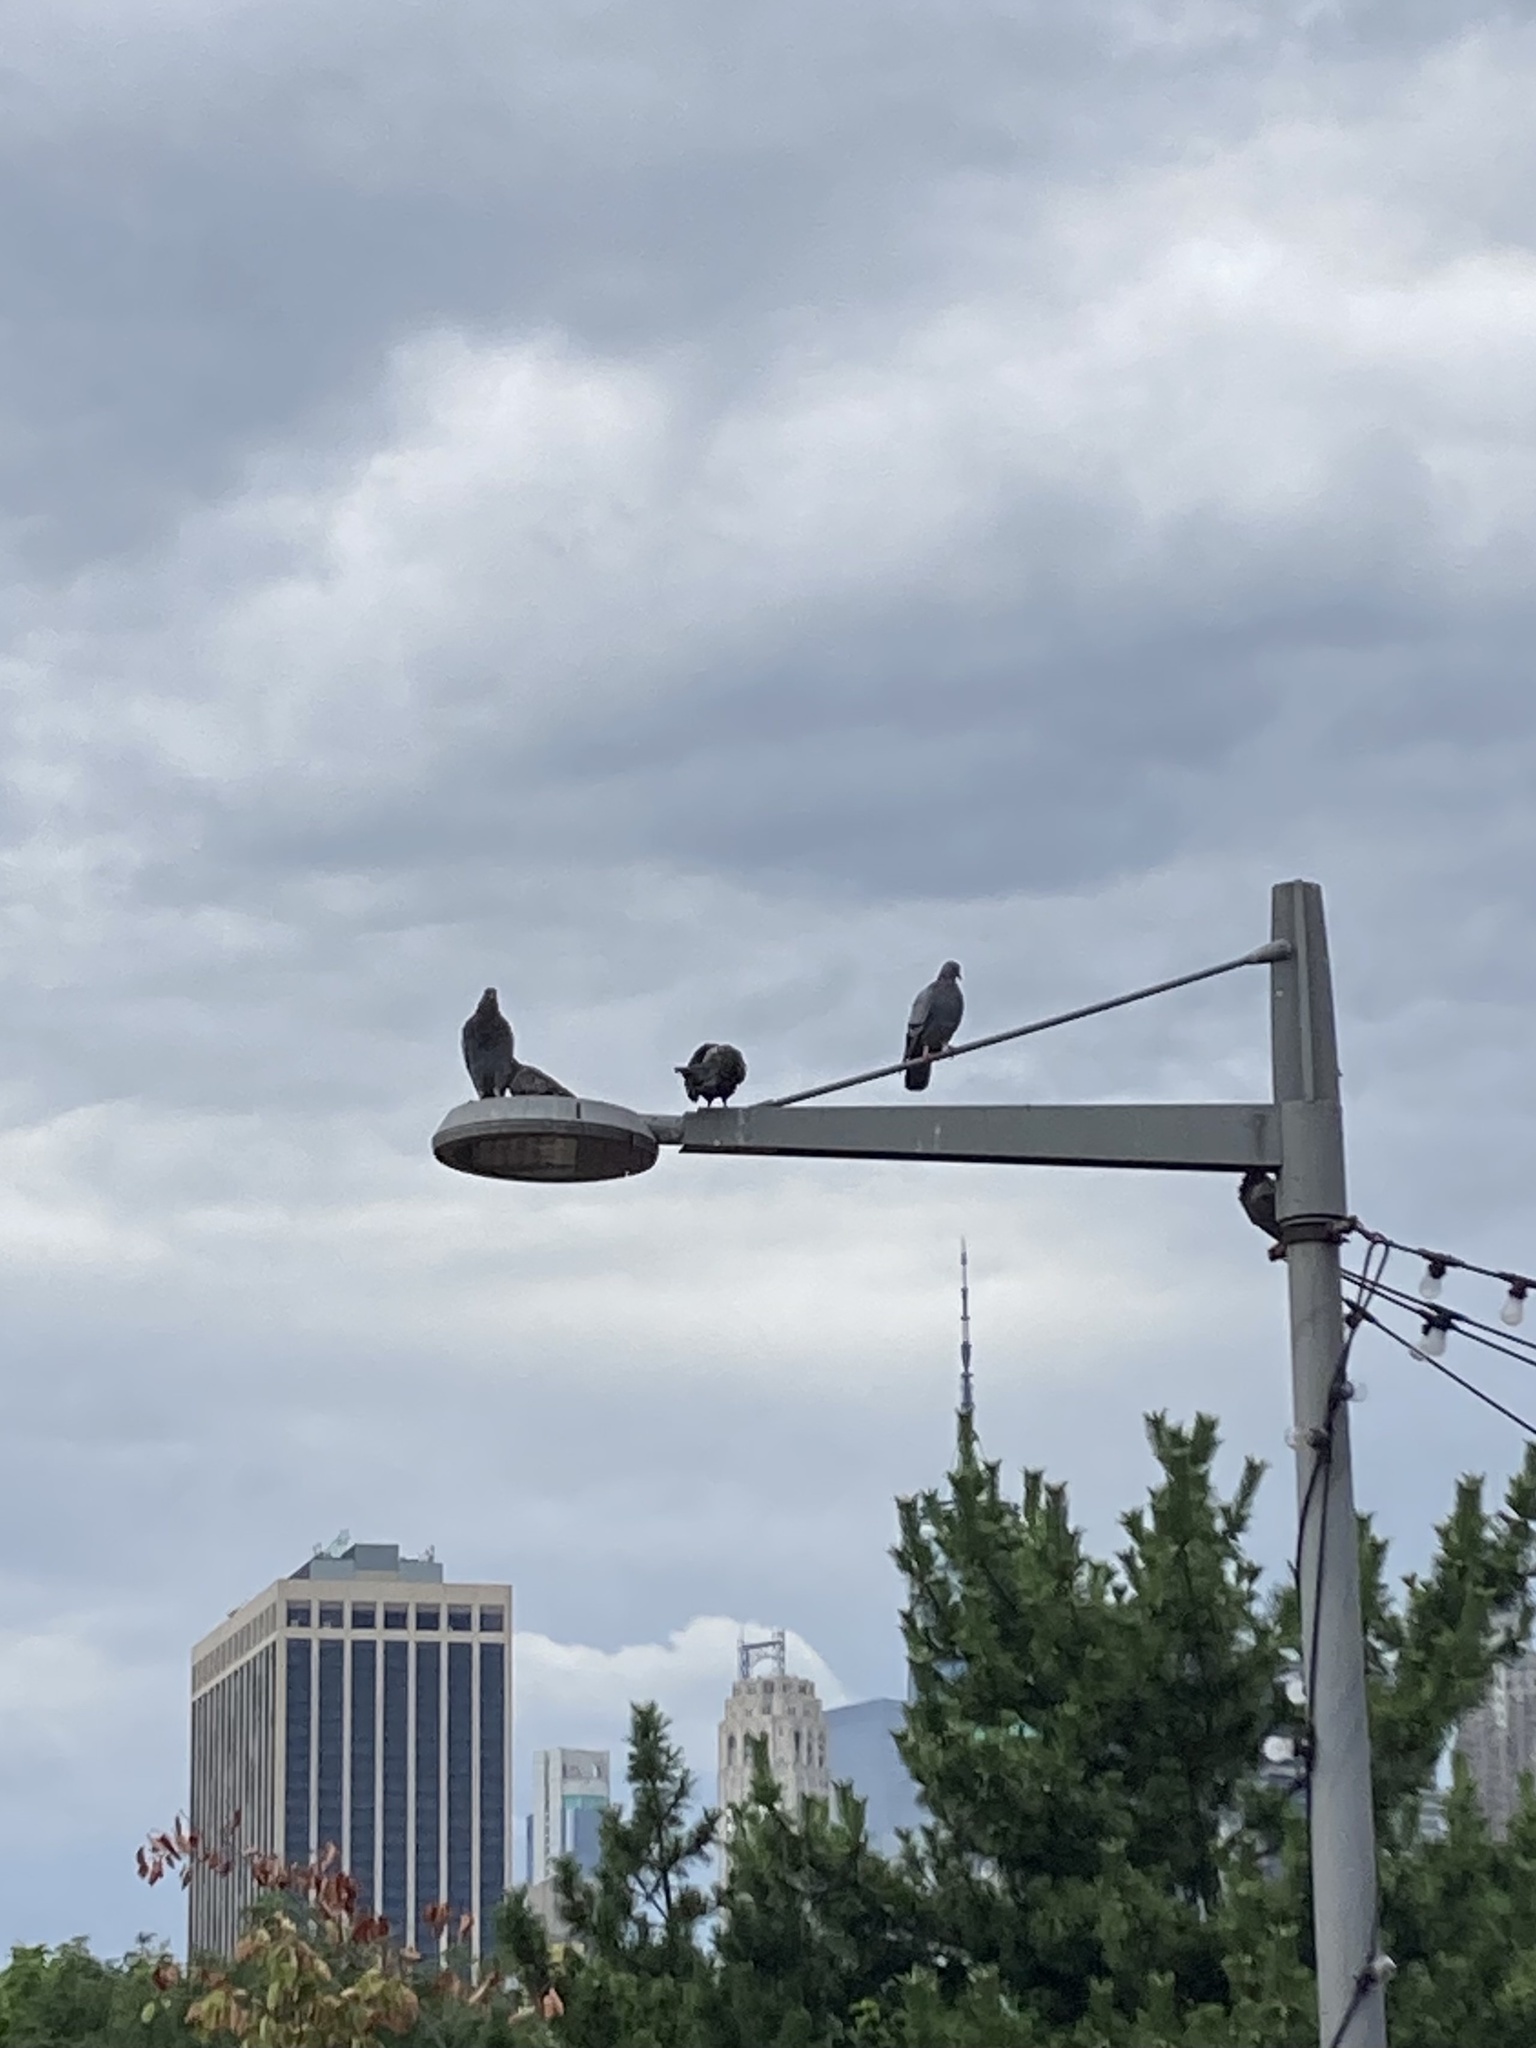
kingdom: Animalia
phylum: Chordata
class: Aves
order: Columbiformes
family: Columbidae
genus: Columba
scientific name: Columba livia
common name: Rock pigeon
